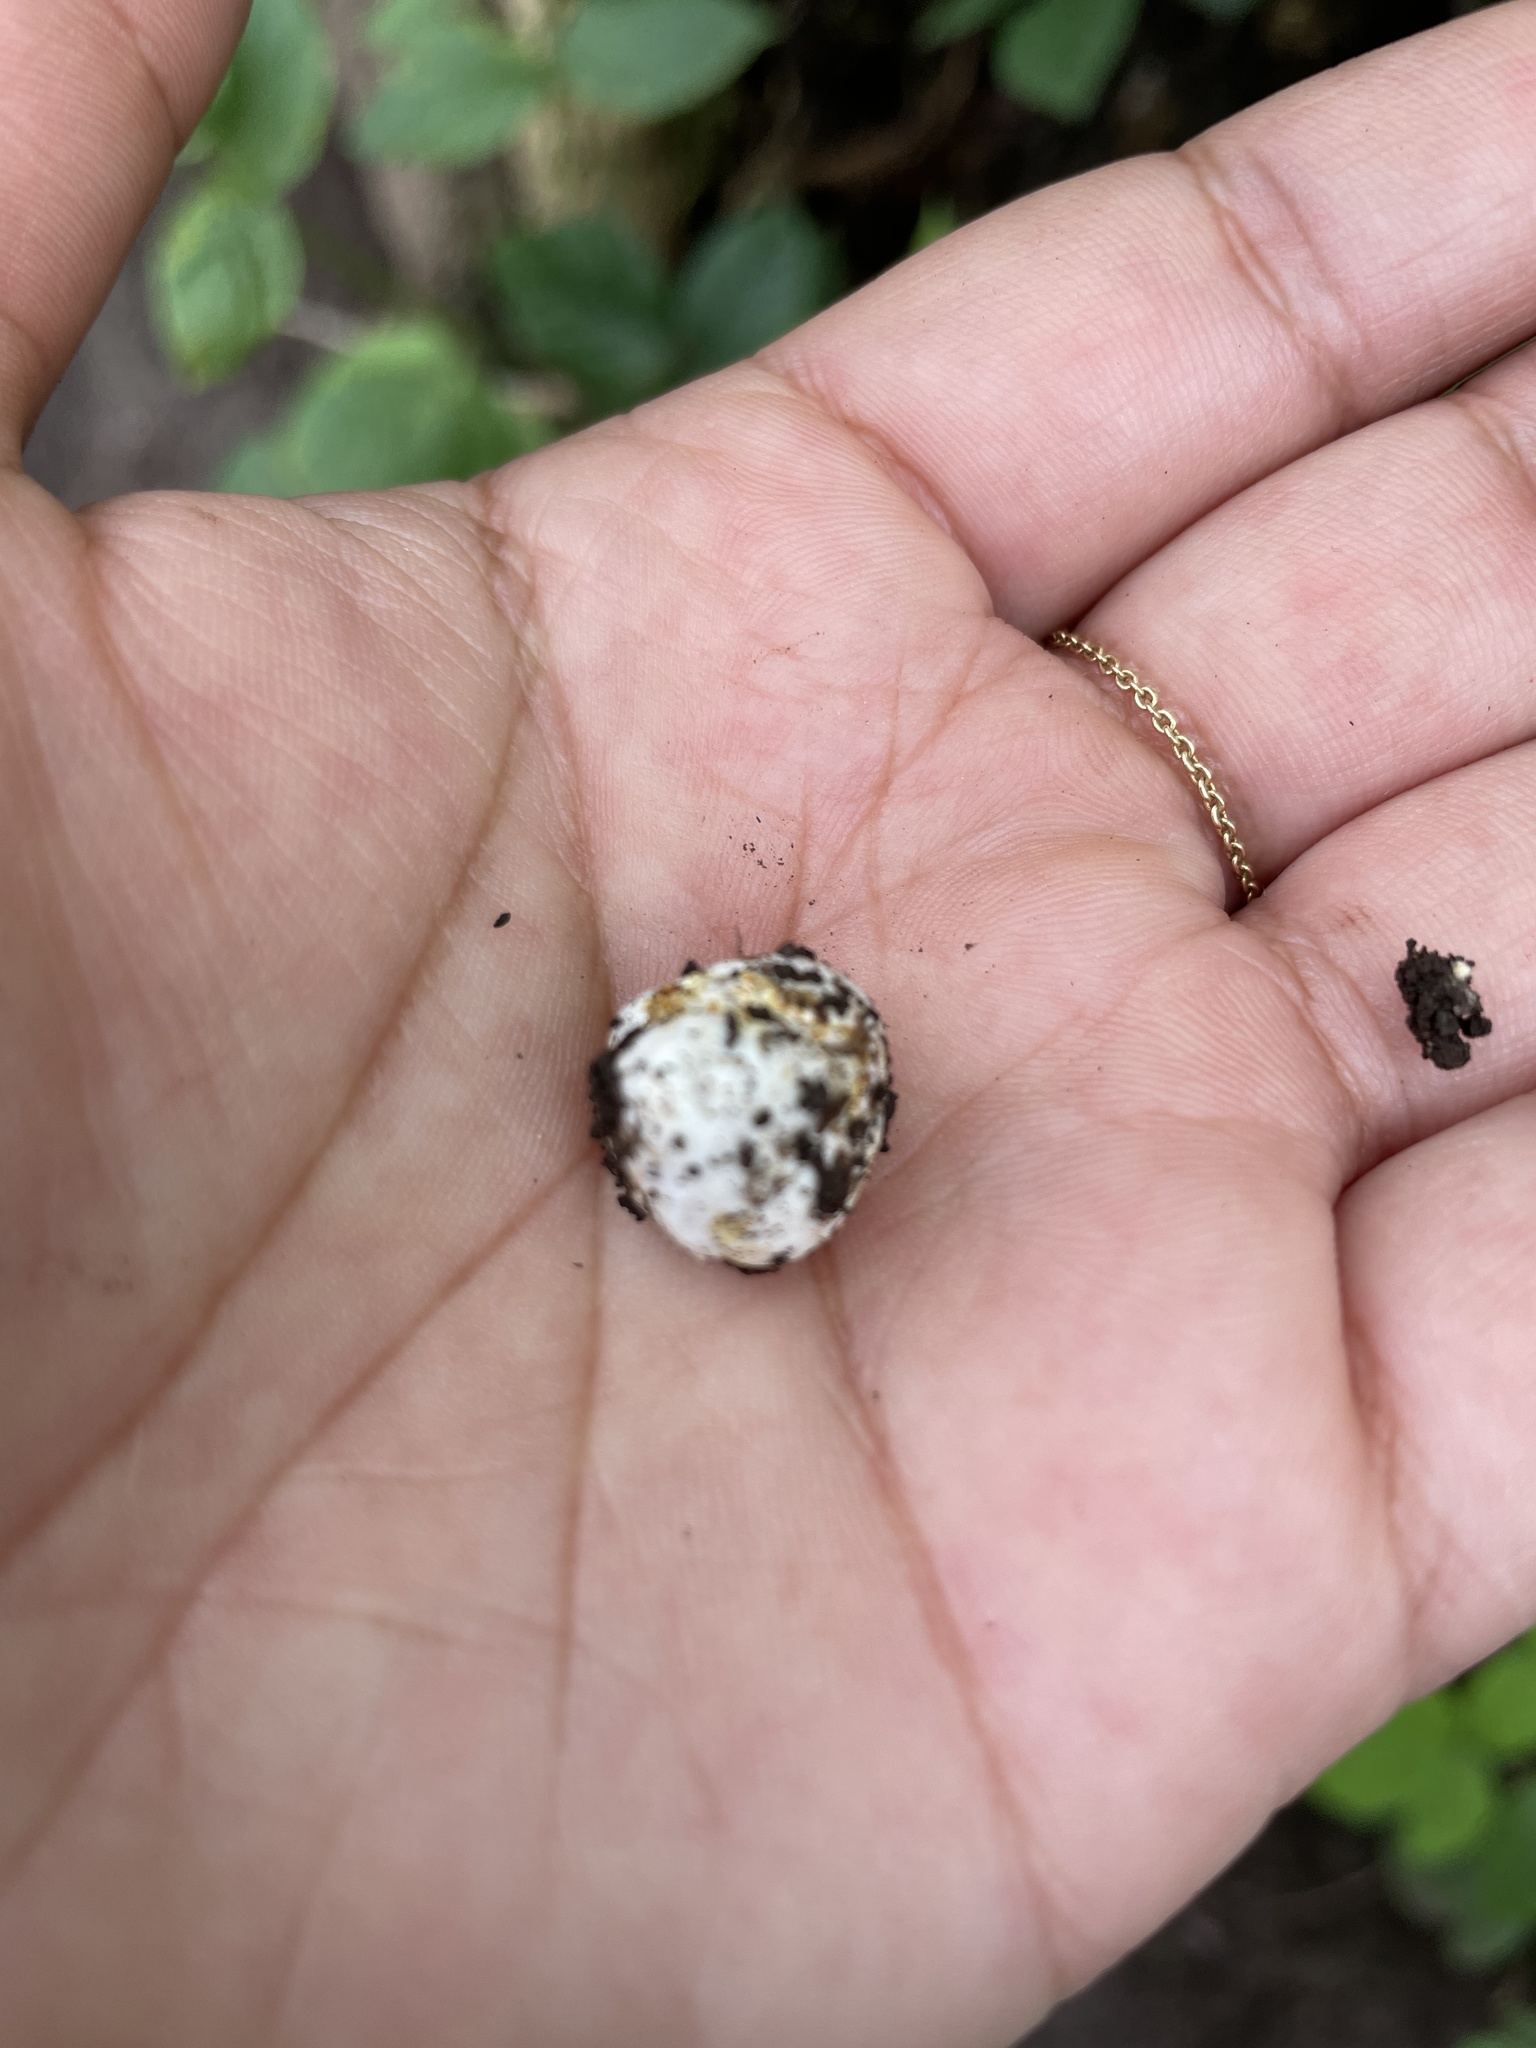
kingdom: Fungi
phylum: Basidiomycota
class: Agaricomycetes
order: Agaricales
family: Hydnangiaceae
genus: Hydnangium
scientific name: Hydnangium carneum
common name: Flesh-pink truffle
